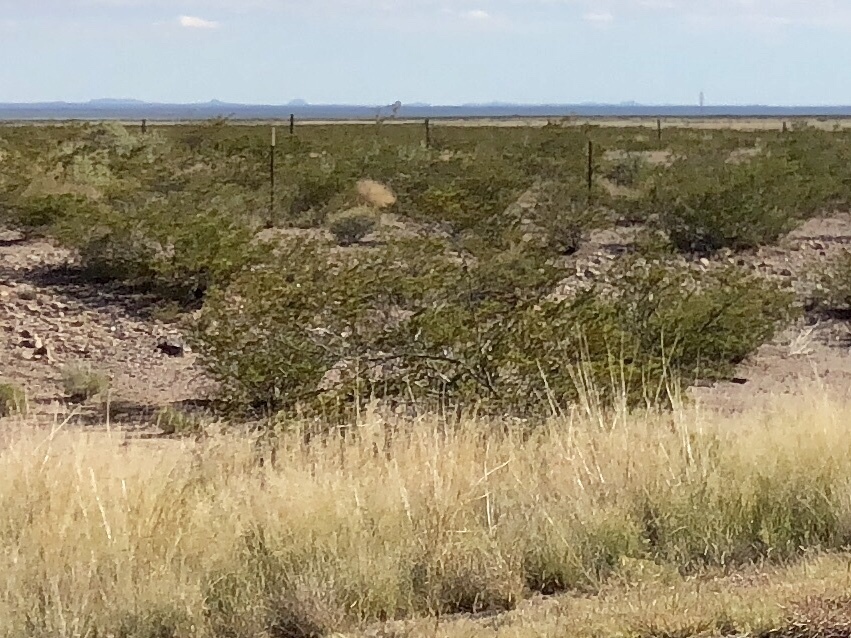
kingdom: Plantae
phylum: Tracheophyta
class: Magnoliopsida
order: Zygophyllales
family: Zygophyllaceae
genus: Larrea
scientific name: Larrea tridentata
